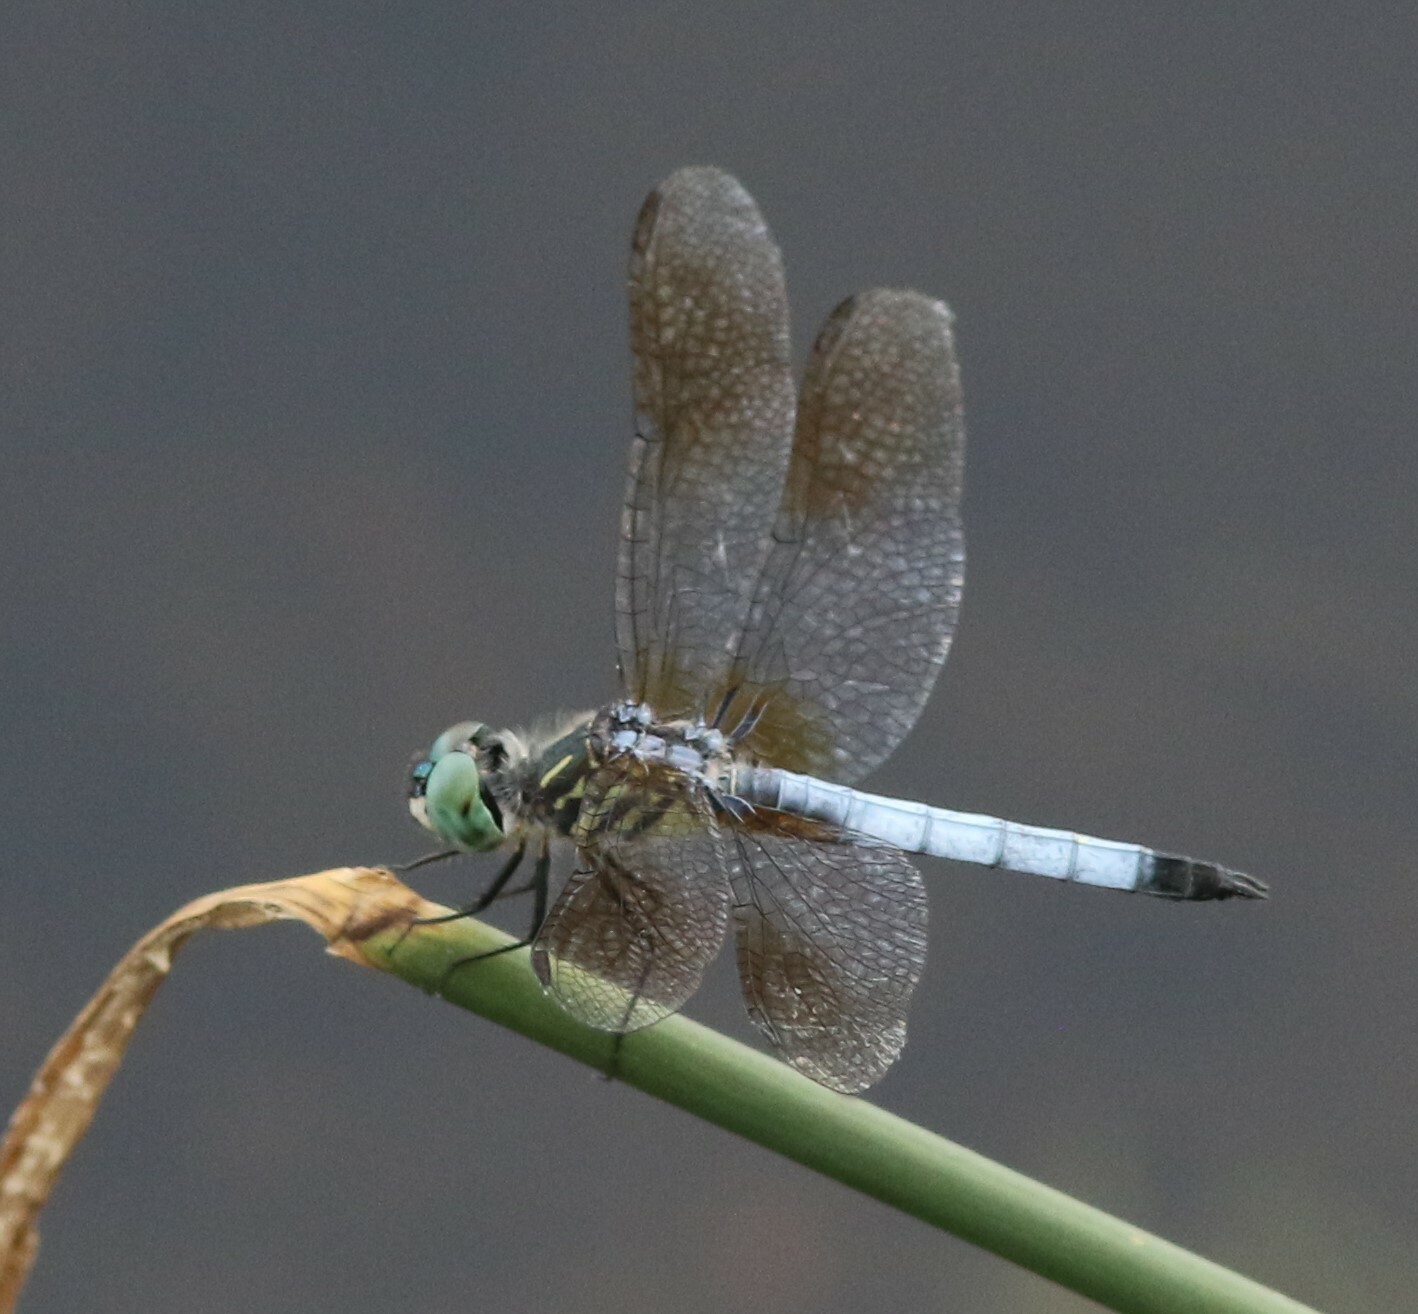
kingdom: Animalia
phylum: Arthropoda
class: Insecta
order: Odonata
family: Libellulidae
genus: Pachydiplax
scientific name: Pachydiplax longipennis
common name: Blue dasher
